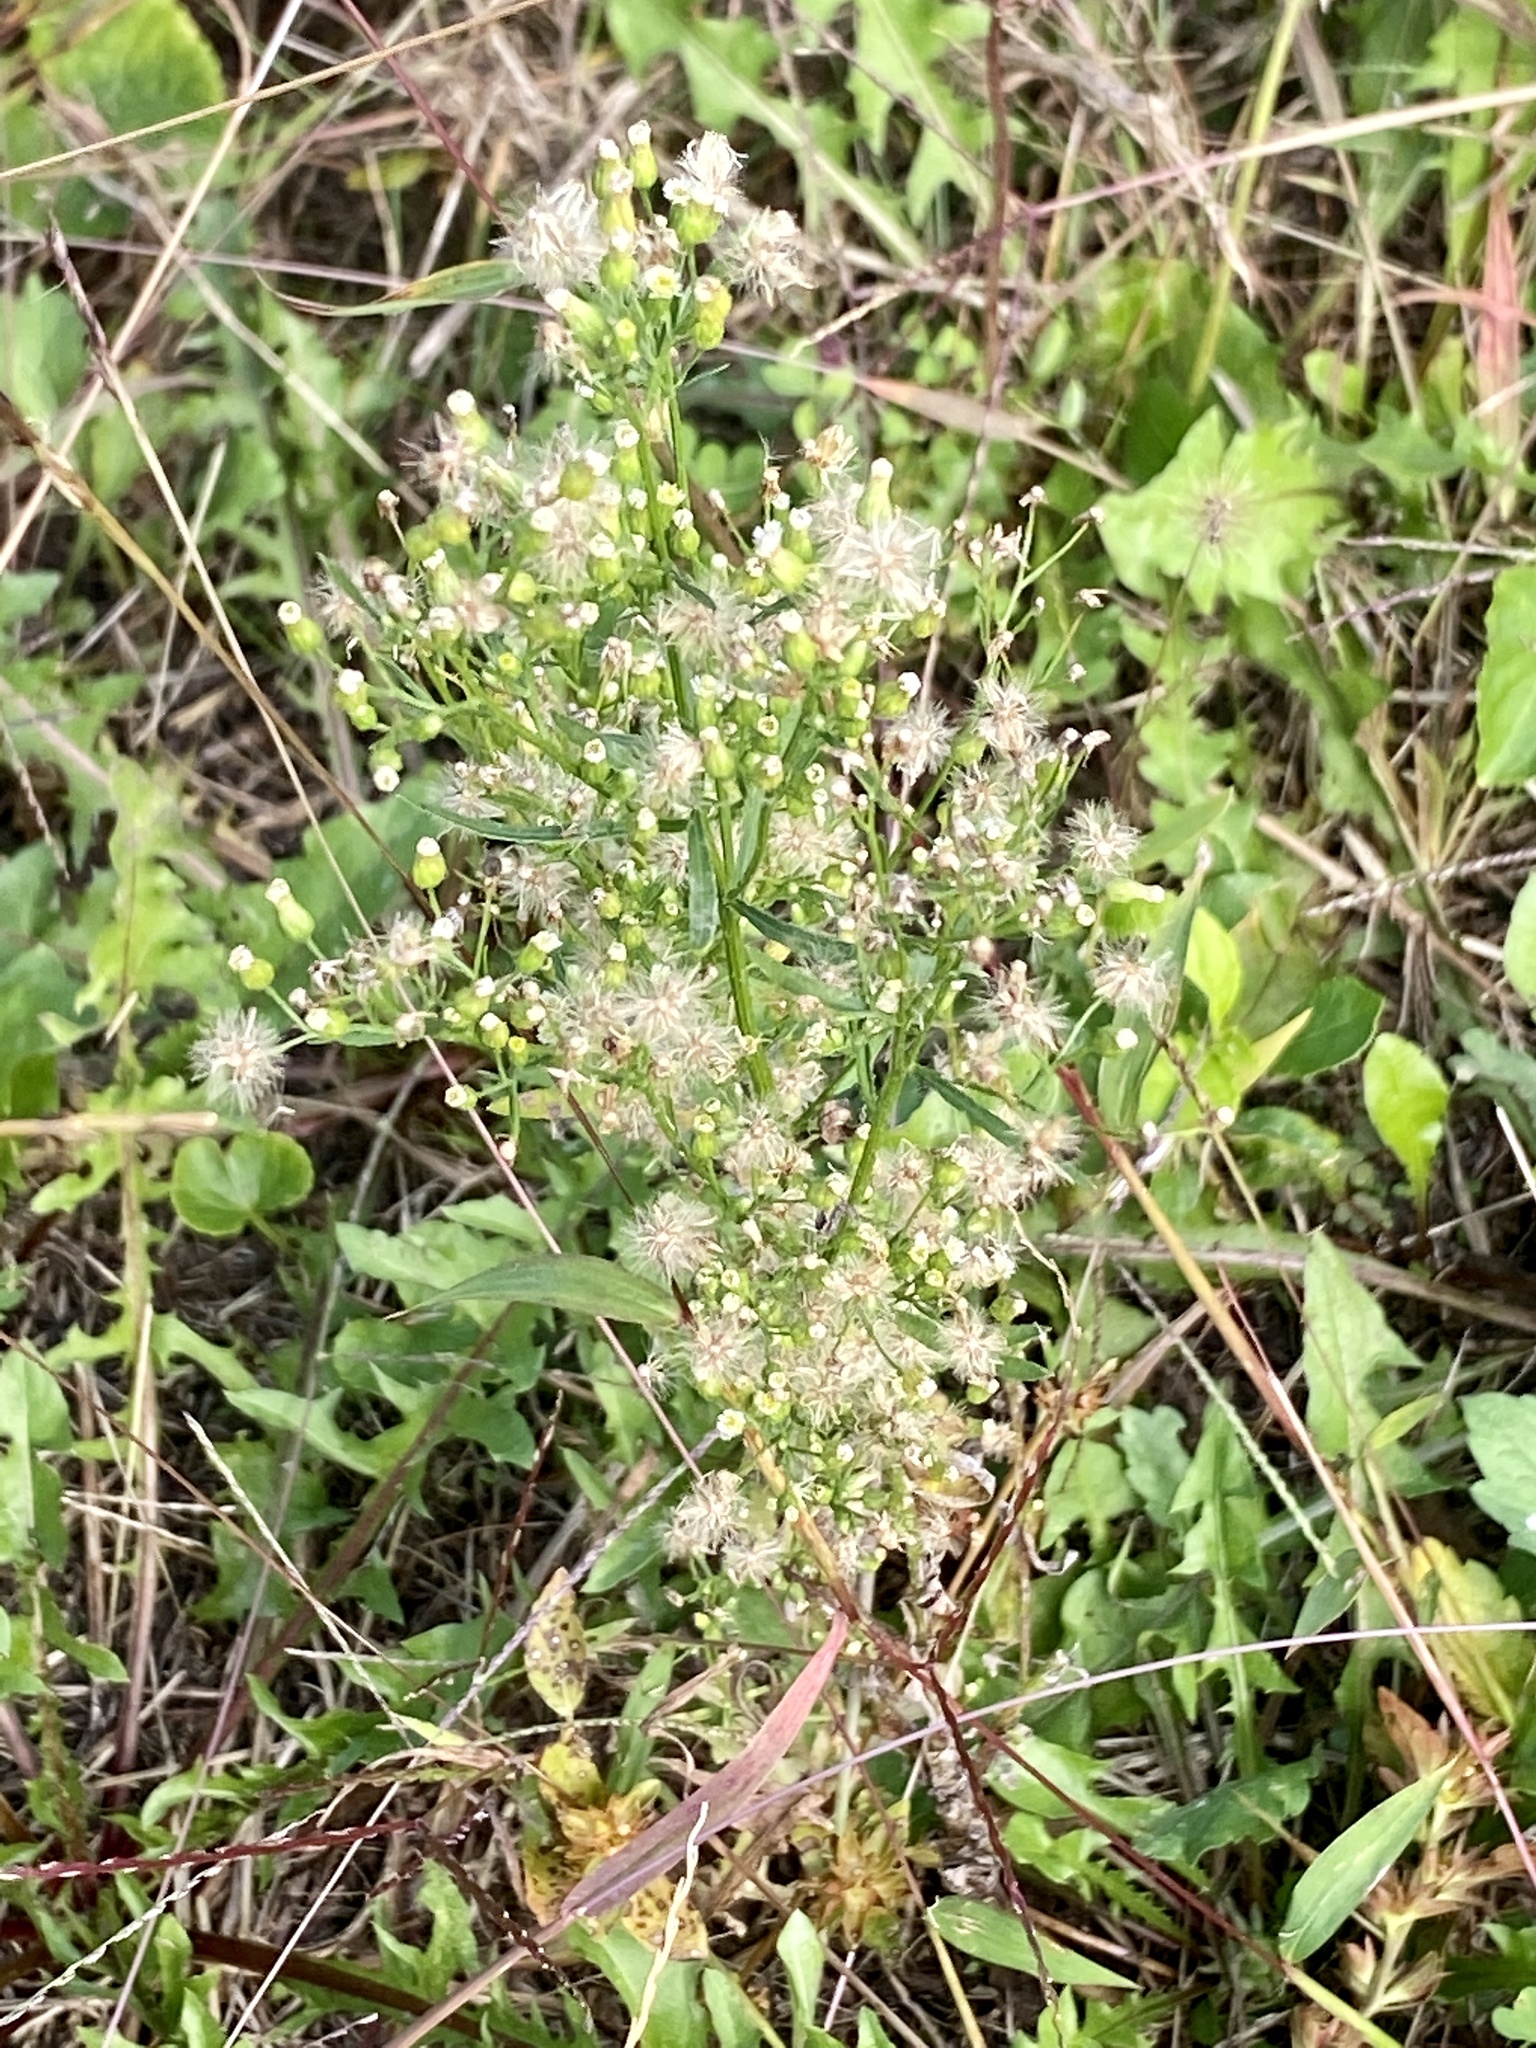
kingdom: Plantae
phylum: Tracheophyta
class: Magnoliopsida
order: Asterales
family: Asteraceae
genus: Erigeron
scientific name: Erigeron canadensis
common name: Canadian fleabane
